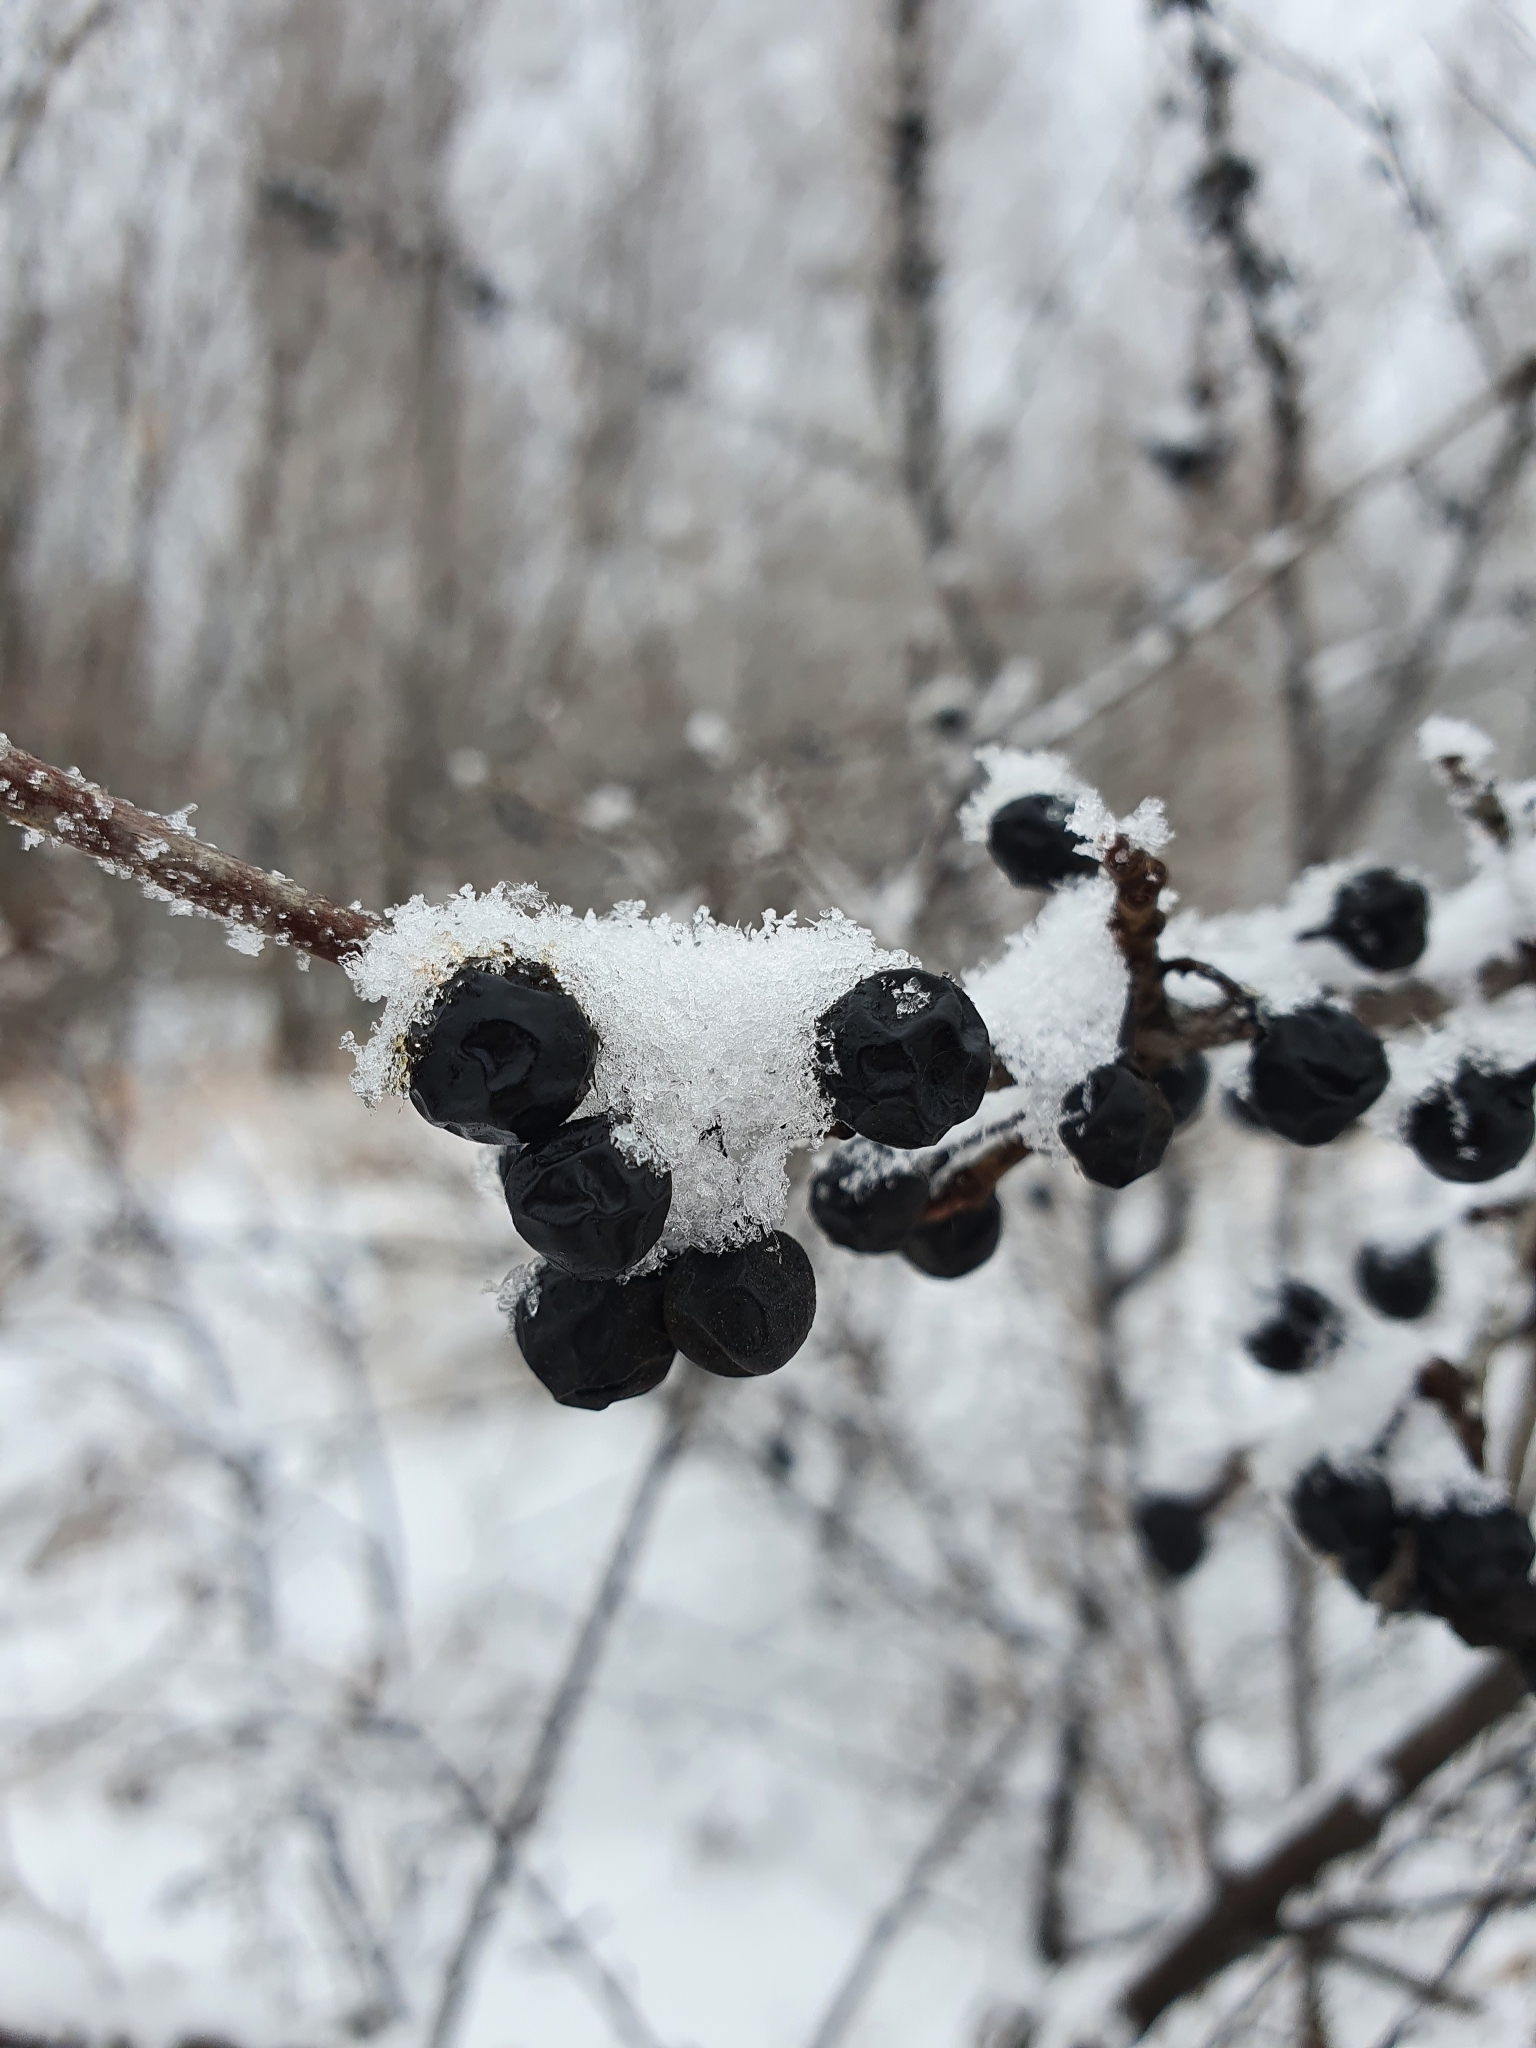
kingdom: Plantae
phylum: Tracheophyta
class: Magnoliopsida
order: Rosales
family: Rosaceae
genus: Cotoneaster
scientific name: Cotoneaster melanocarpus
